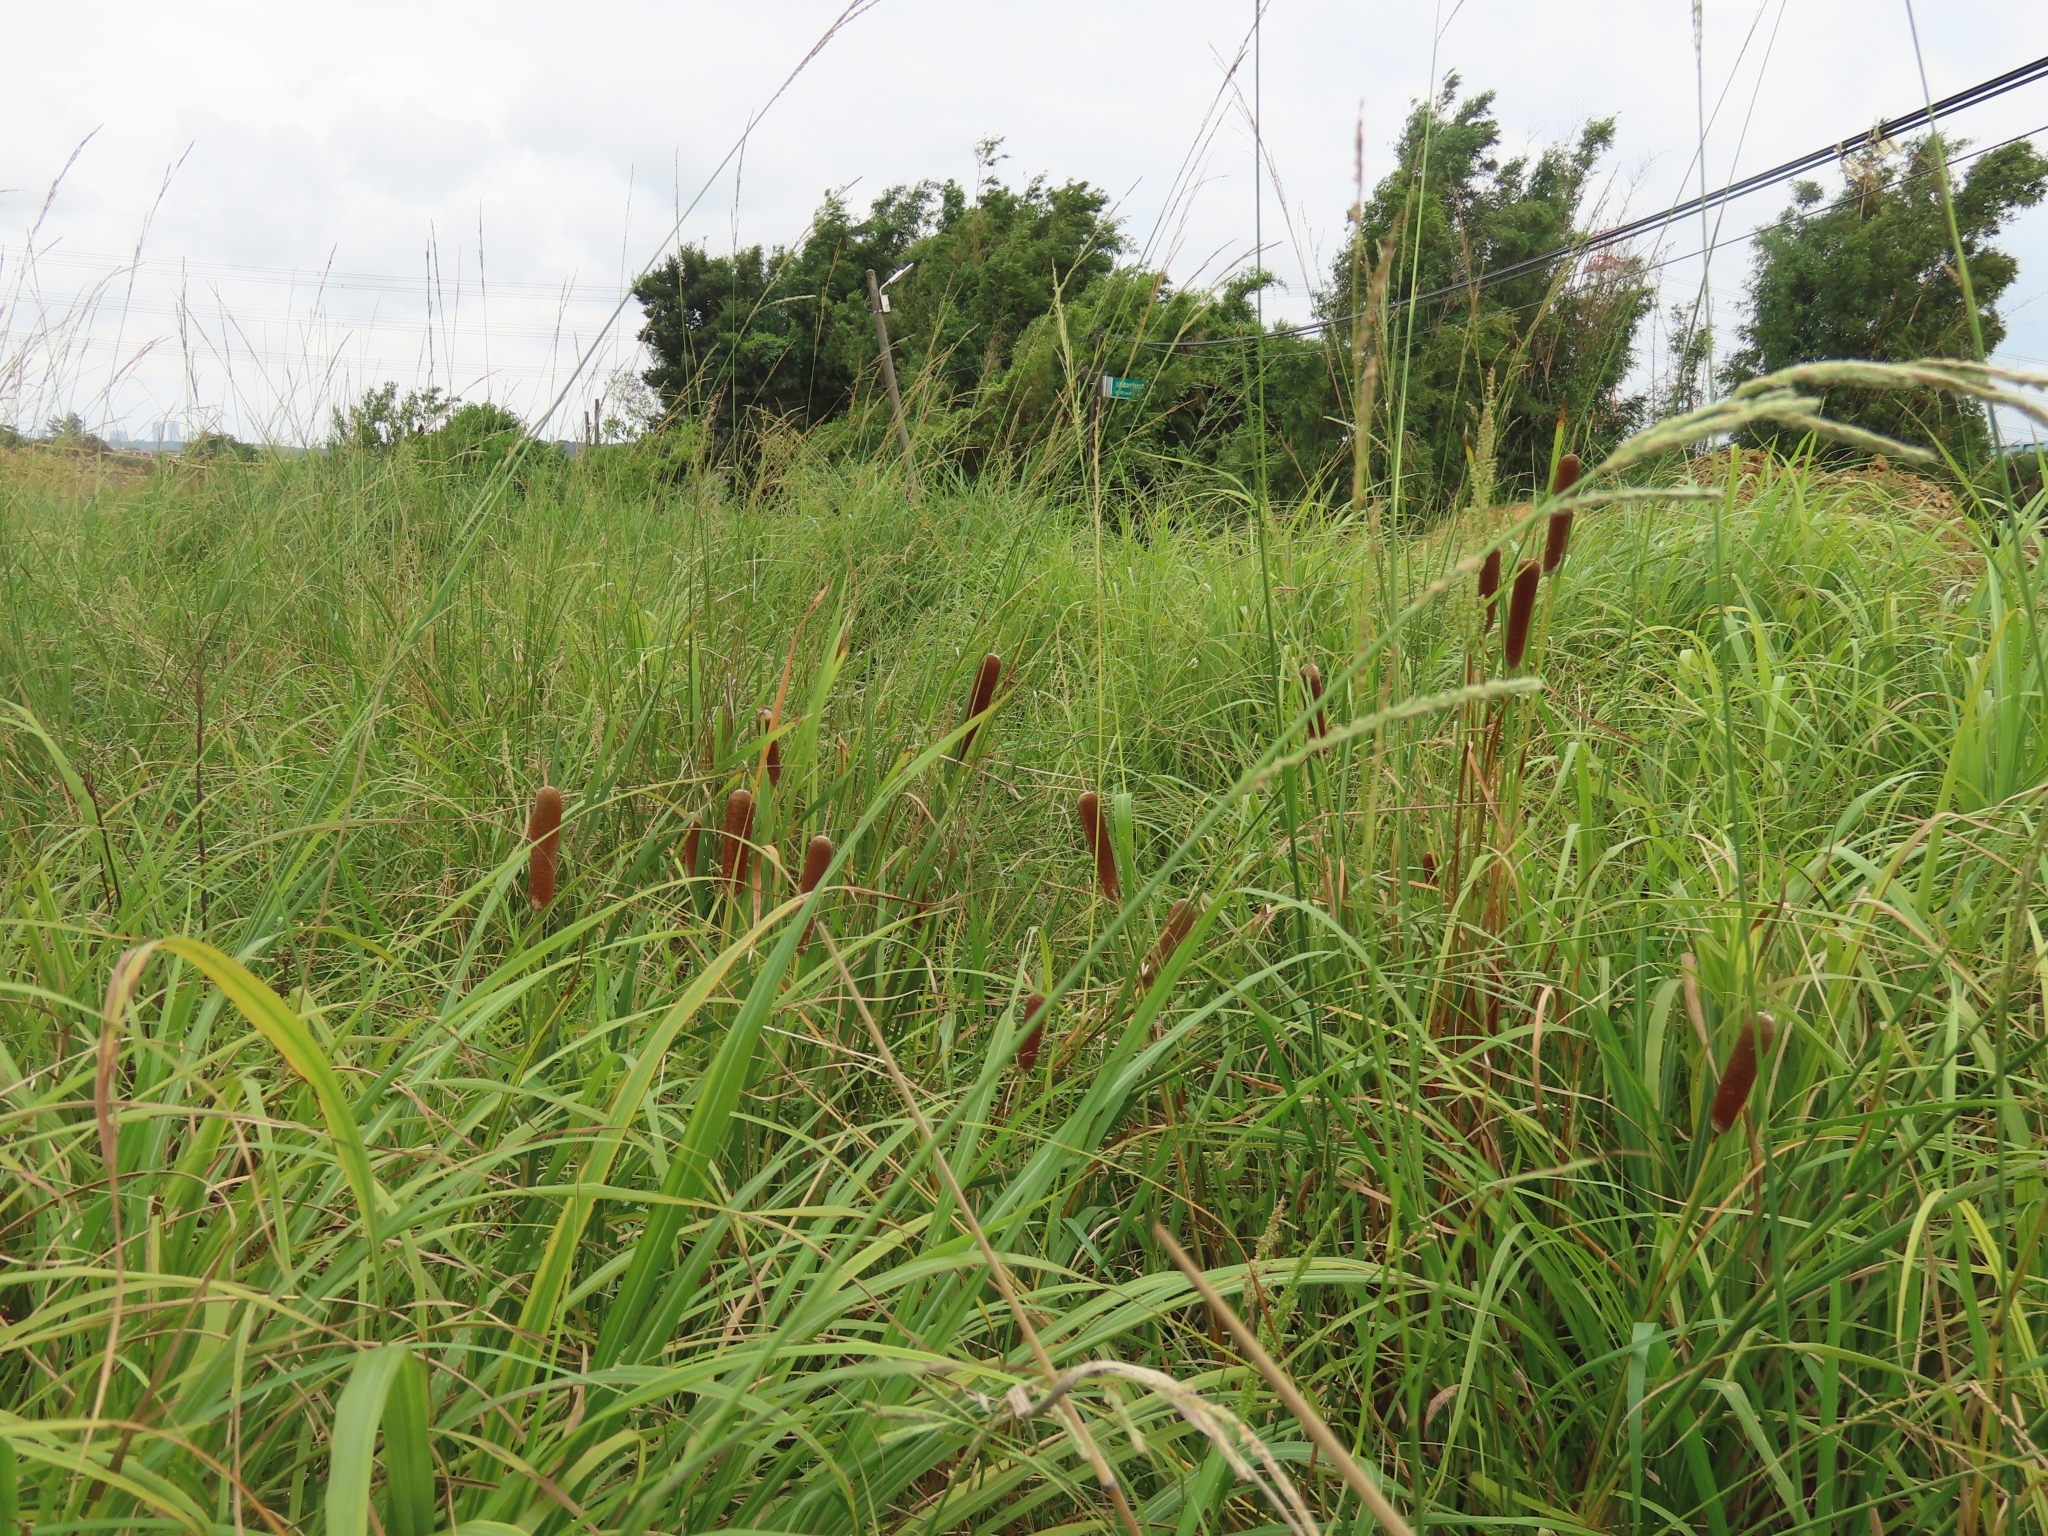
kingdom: Plantae
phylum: Tracheophyta
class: Liliopsida
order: Poales
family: Typhaceae
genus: Typha
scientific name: Typha orientalis
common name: Bullrush
